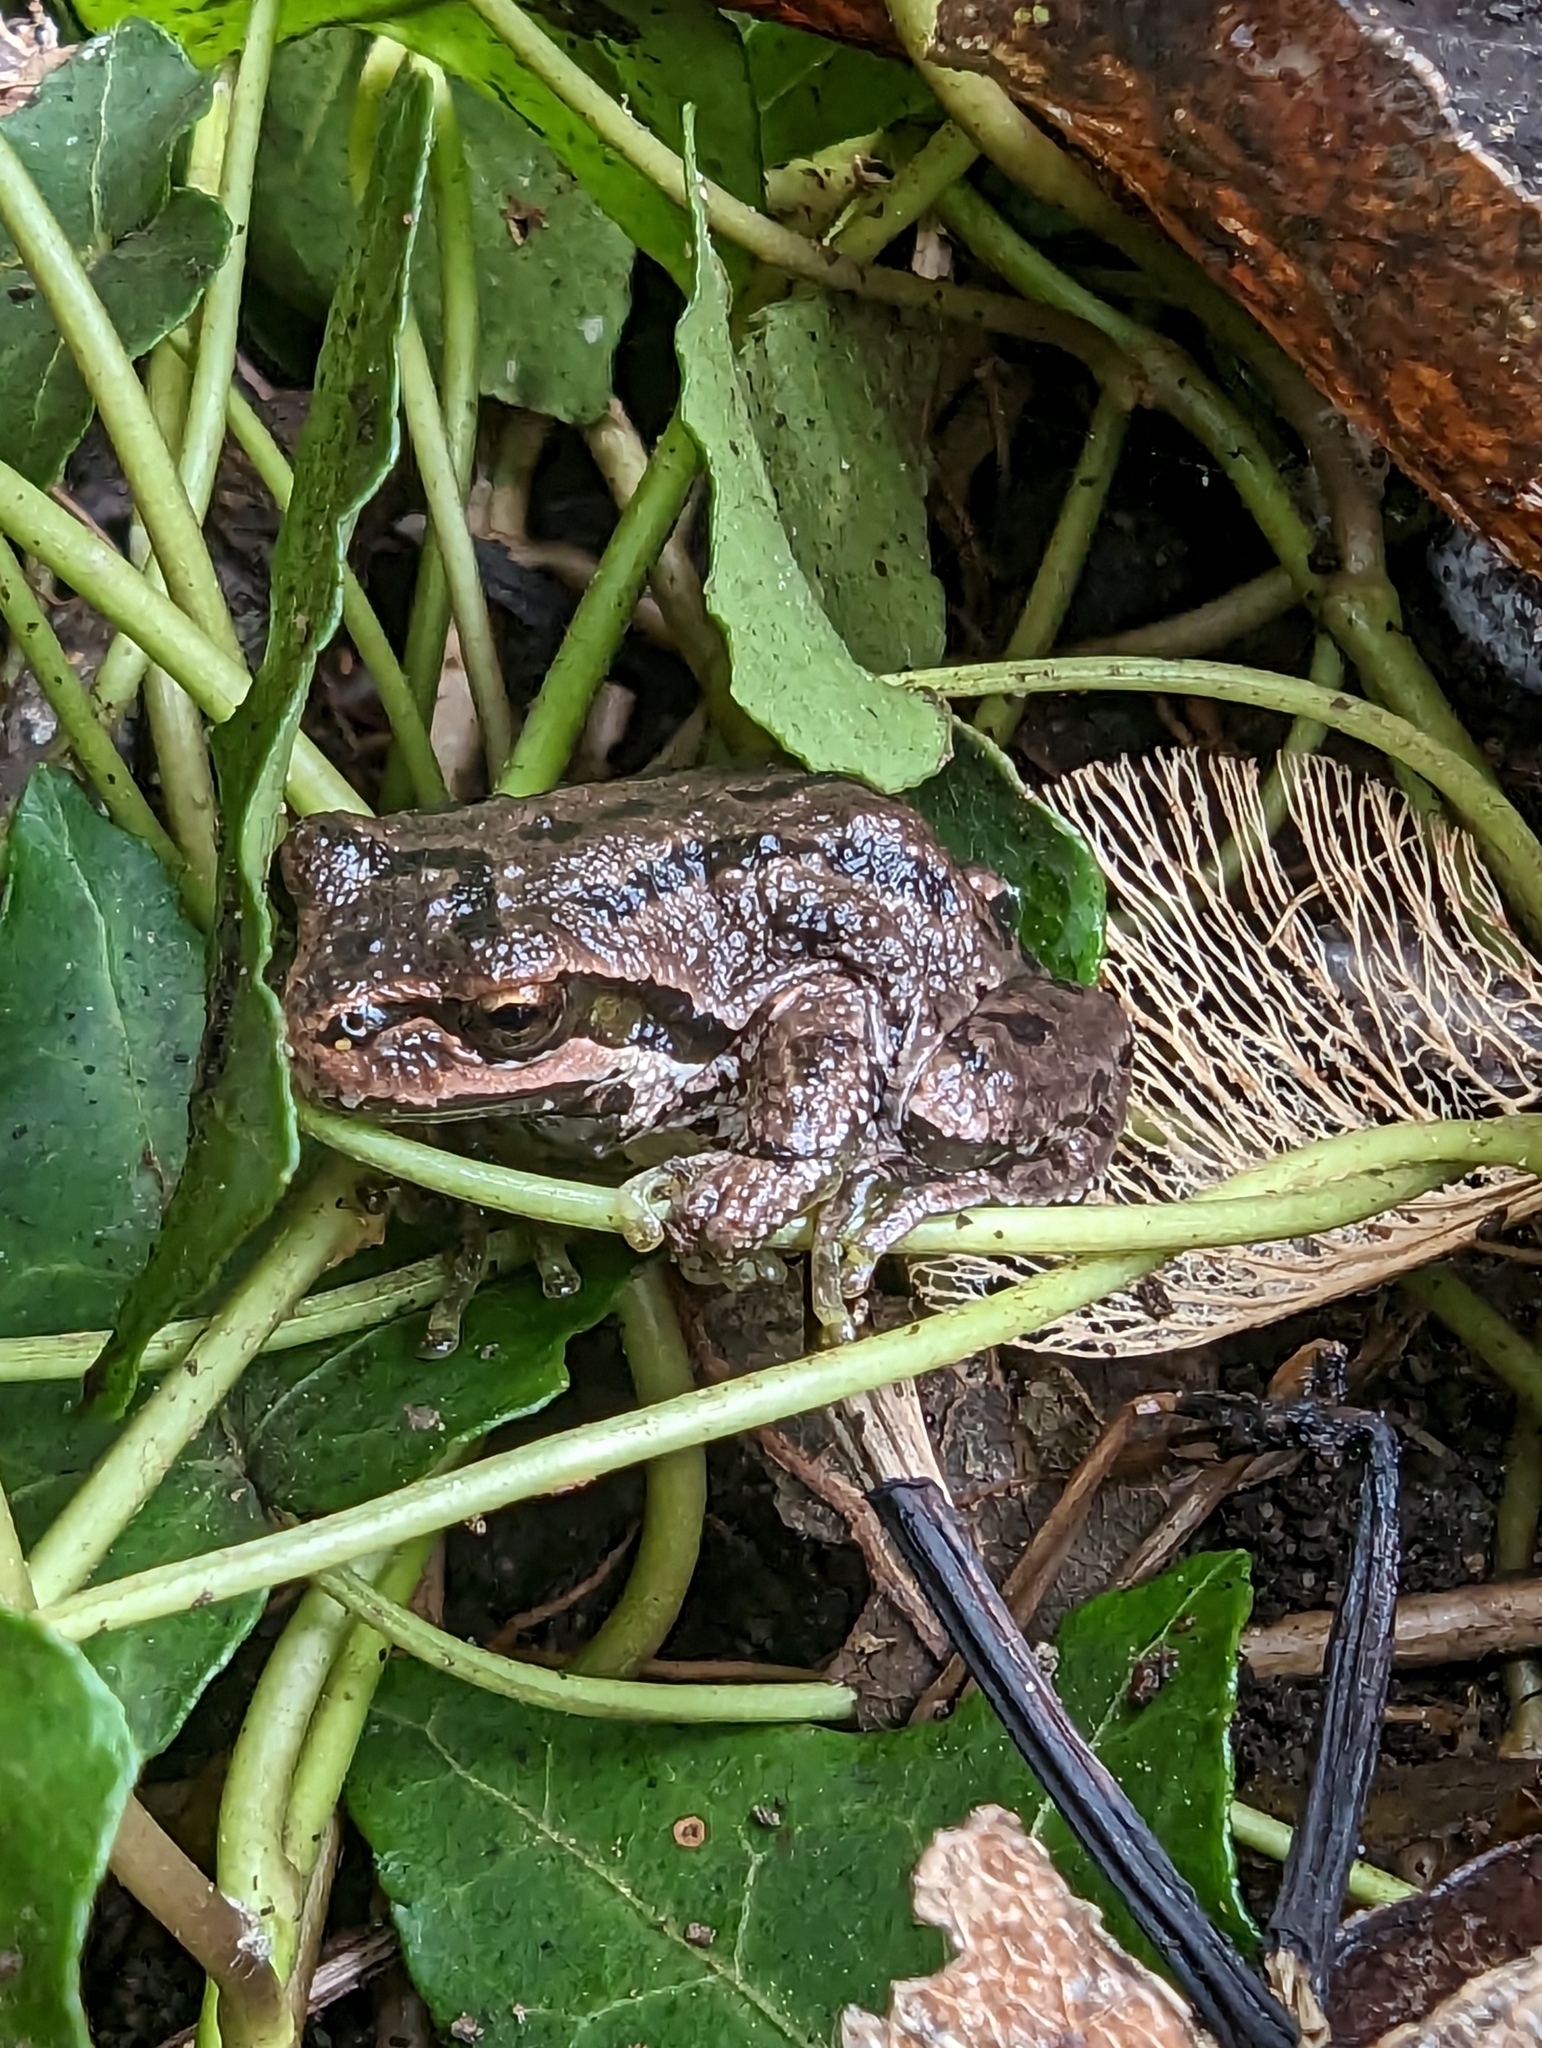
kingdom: Animalia
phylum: Chordata
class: Amphibia
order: Anura
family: Hylidae
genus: Pseudacris
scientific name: Pseudacris regilla
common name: Pacific chorus frog
